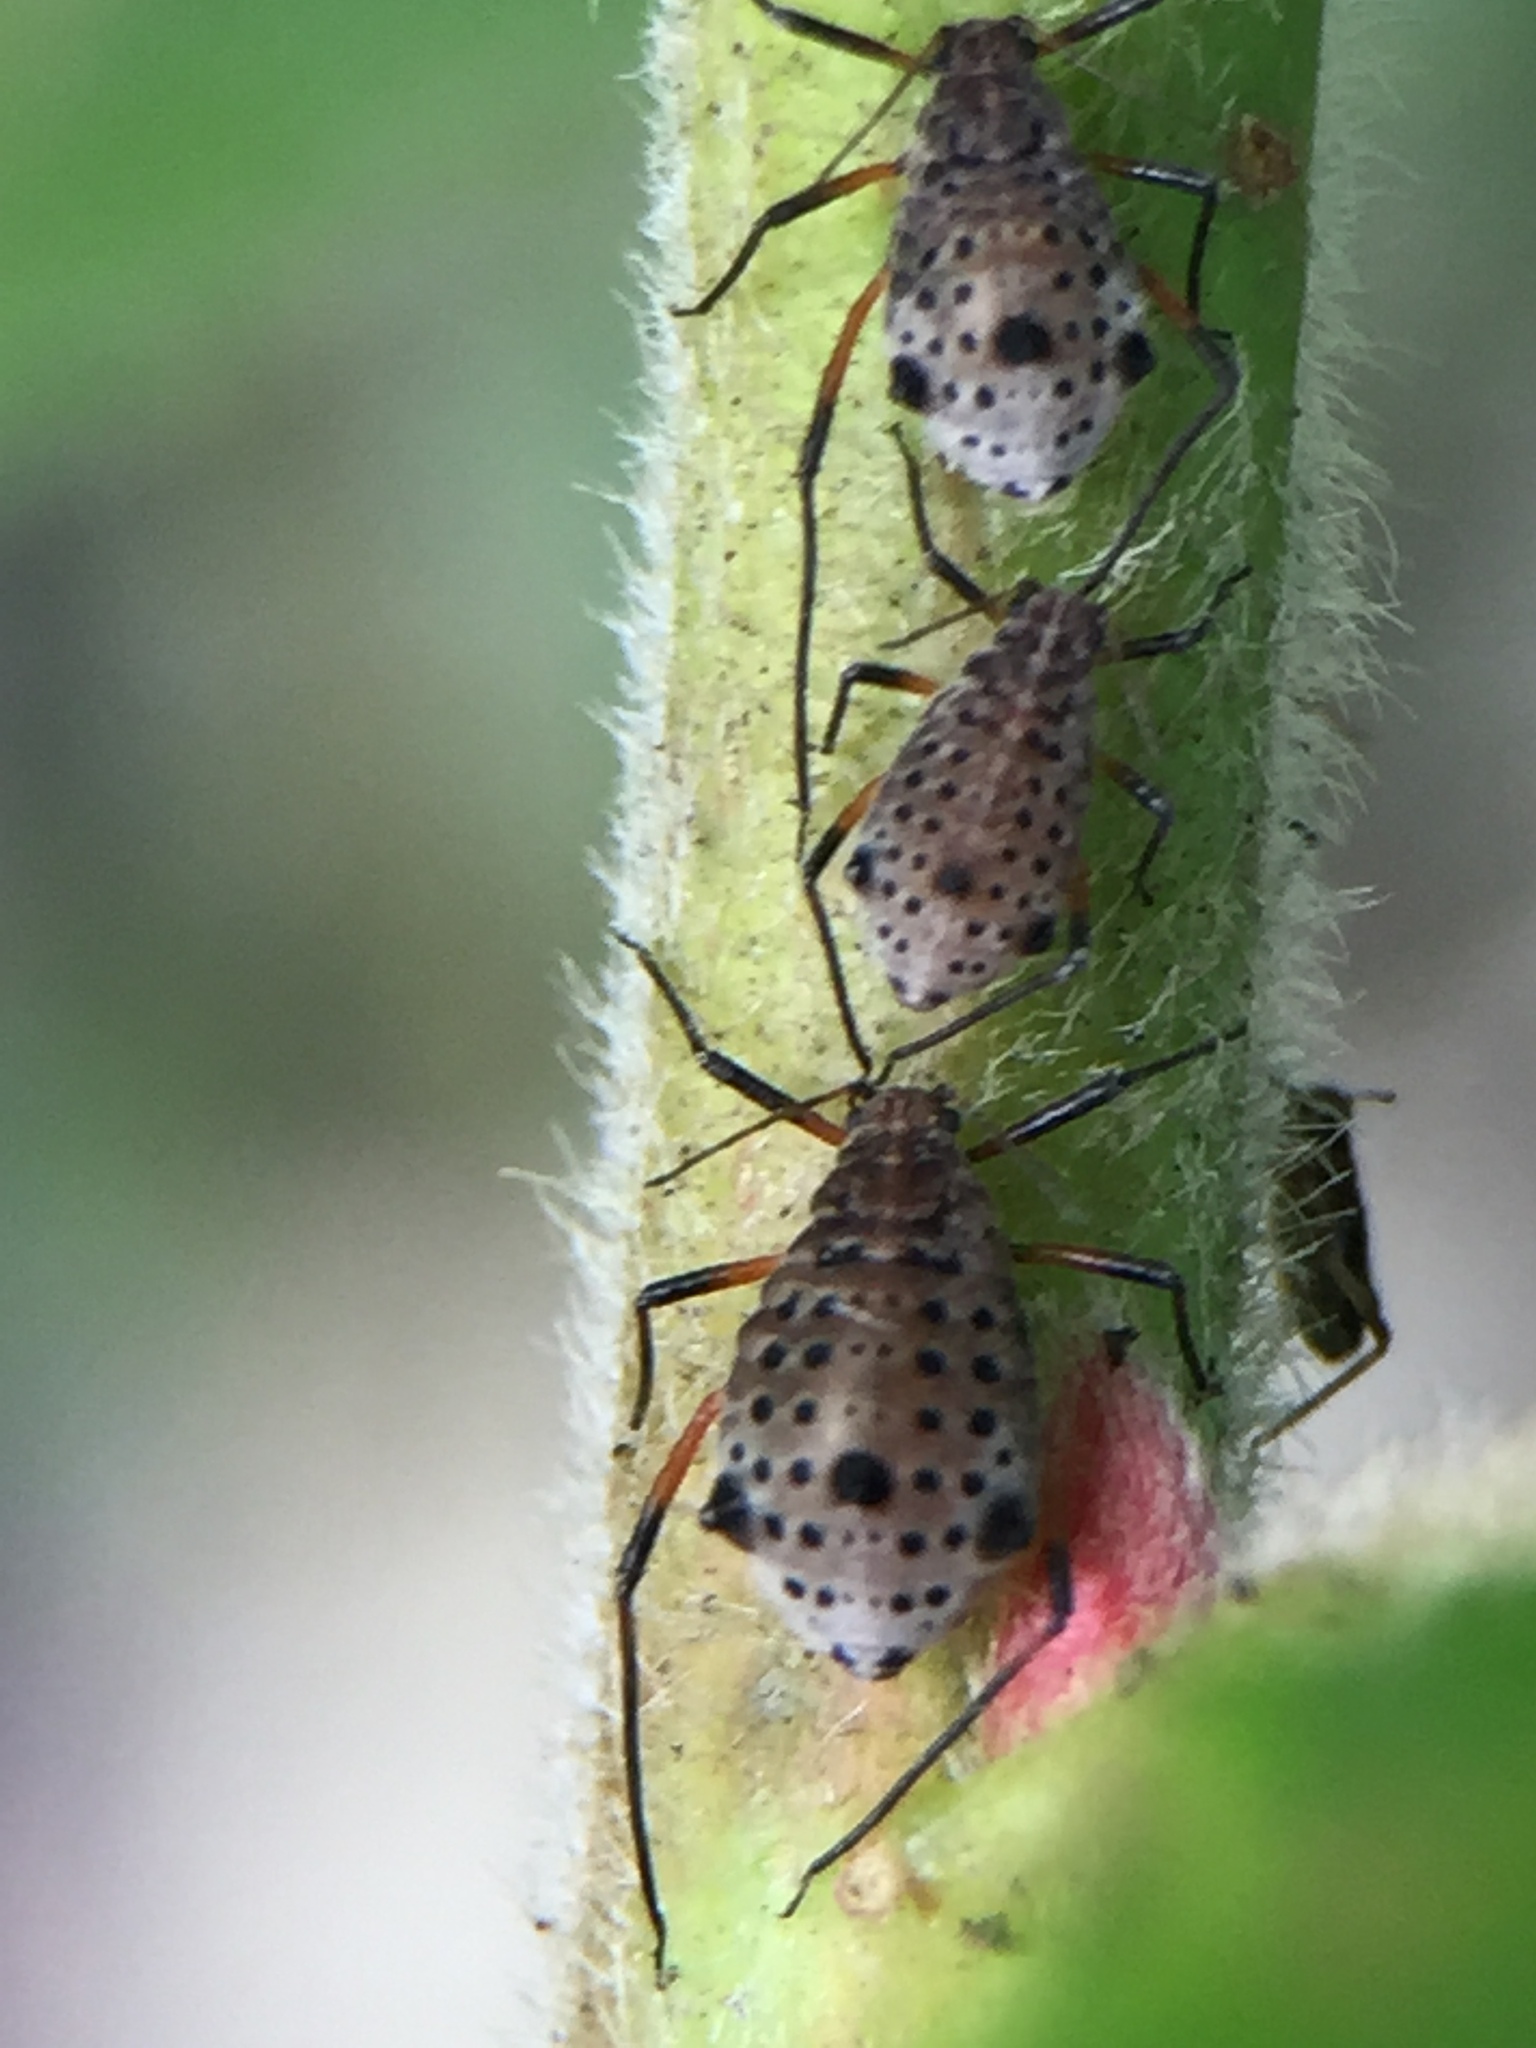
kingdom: Animalia
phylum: Arthropoda
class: Insecta
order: Hemiptera
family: Aphididae
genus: Tuberolachnus
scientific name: Tuberolachnus salignus
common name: Giant willow aphid
